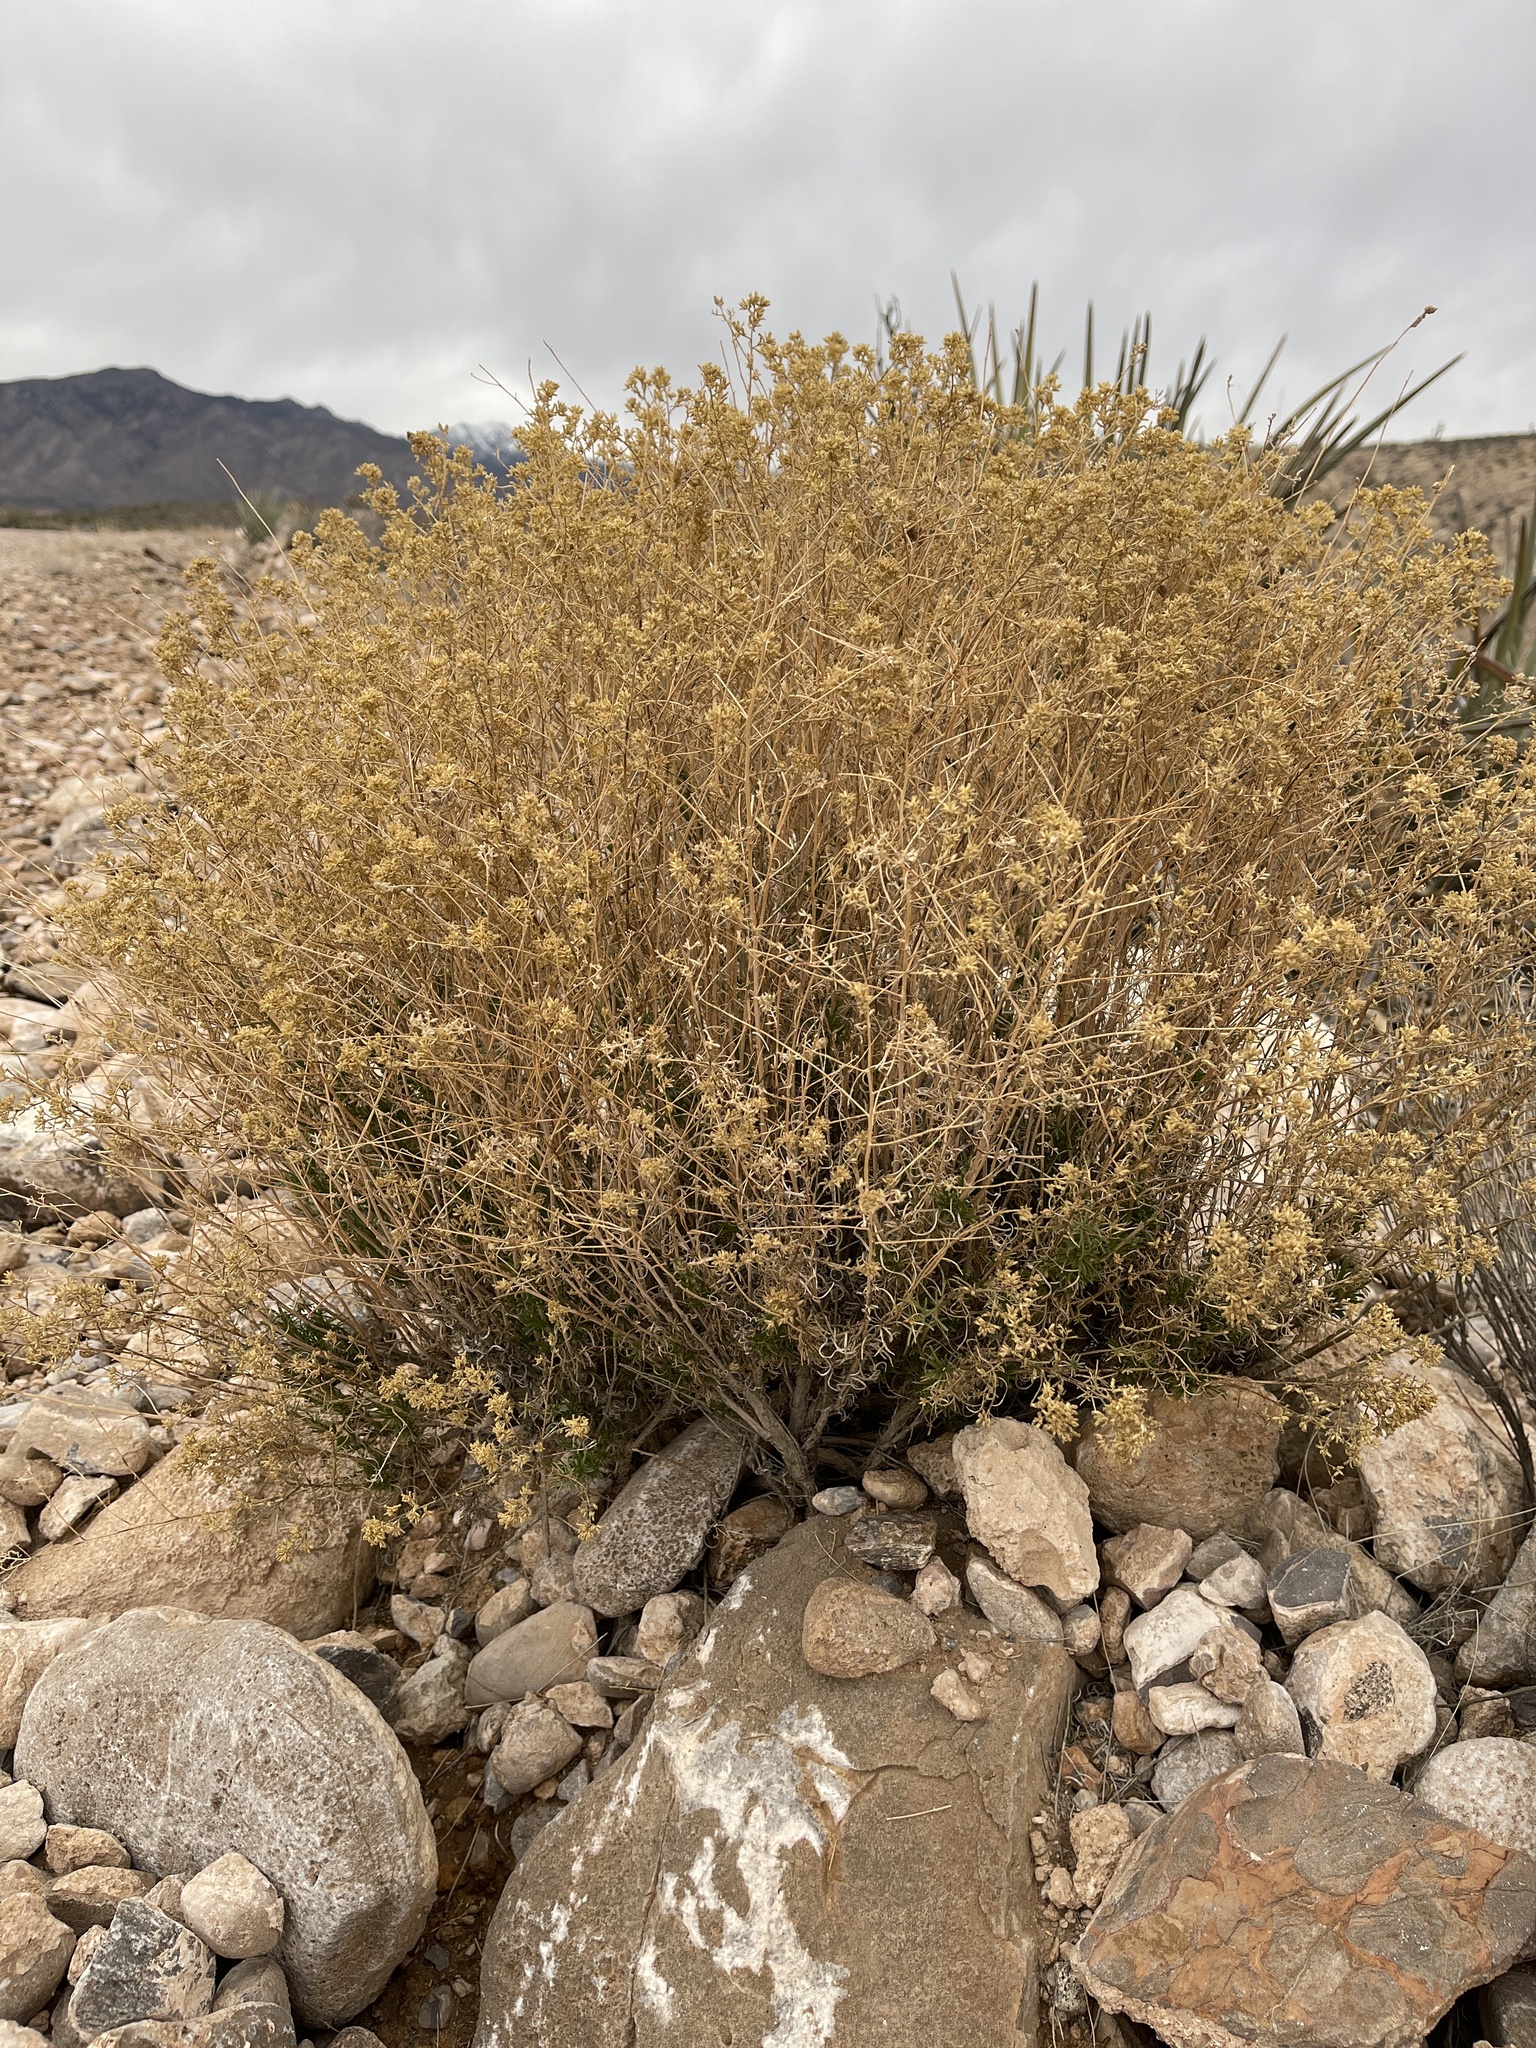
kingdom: Plantae
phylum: Tracheophyta
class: Magnoliopsida
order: Asterales
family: Asteraceae
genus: Gutierrezia
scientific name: Gutierrezia microcephala
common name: Thread snakeweed
